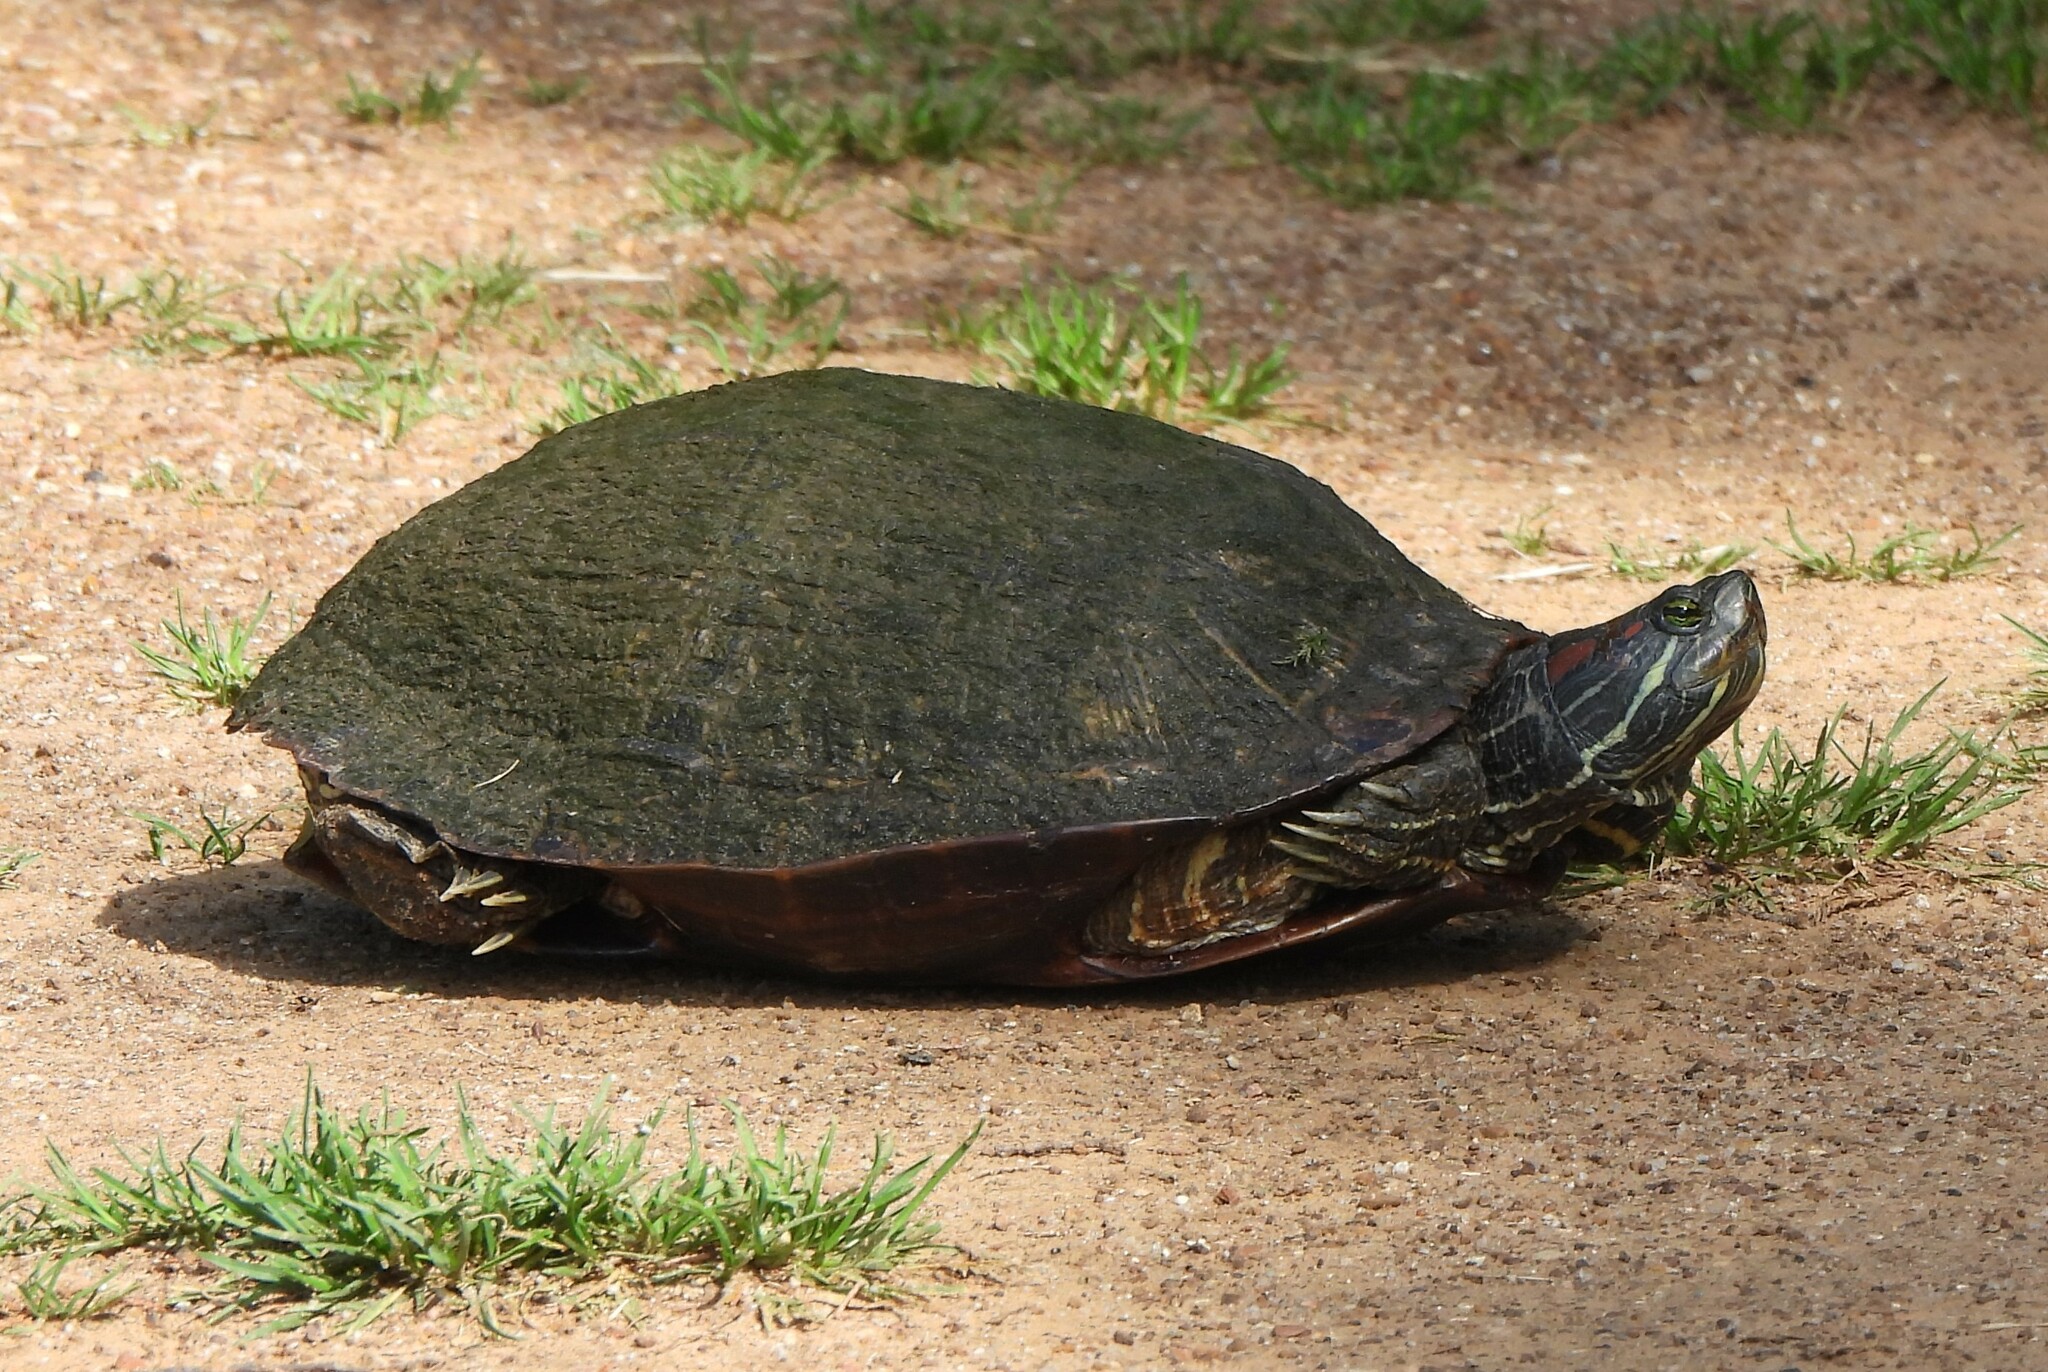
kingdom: Animalia
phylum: Chordata
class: Testudines
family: Emydidae
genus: Trachemys
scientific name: Trachemys scripta
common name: Slider
